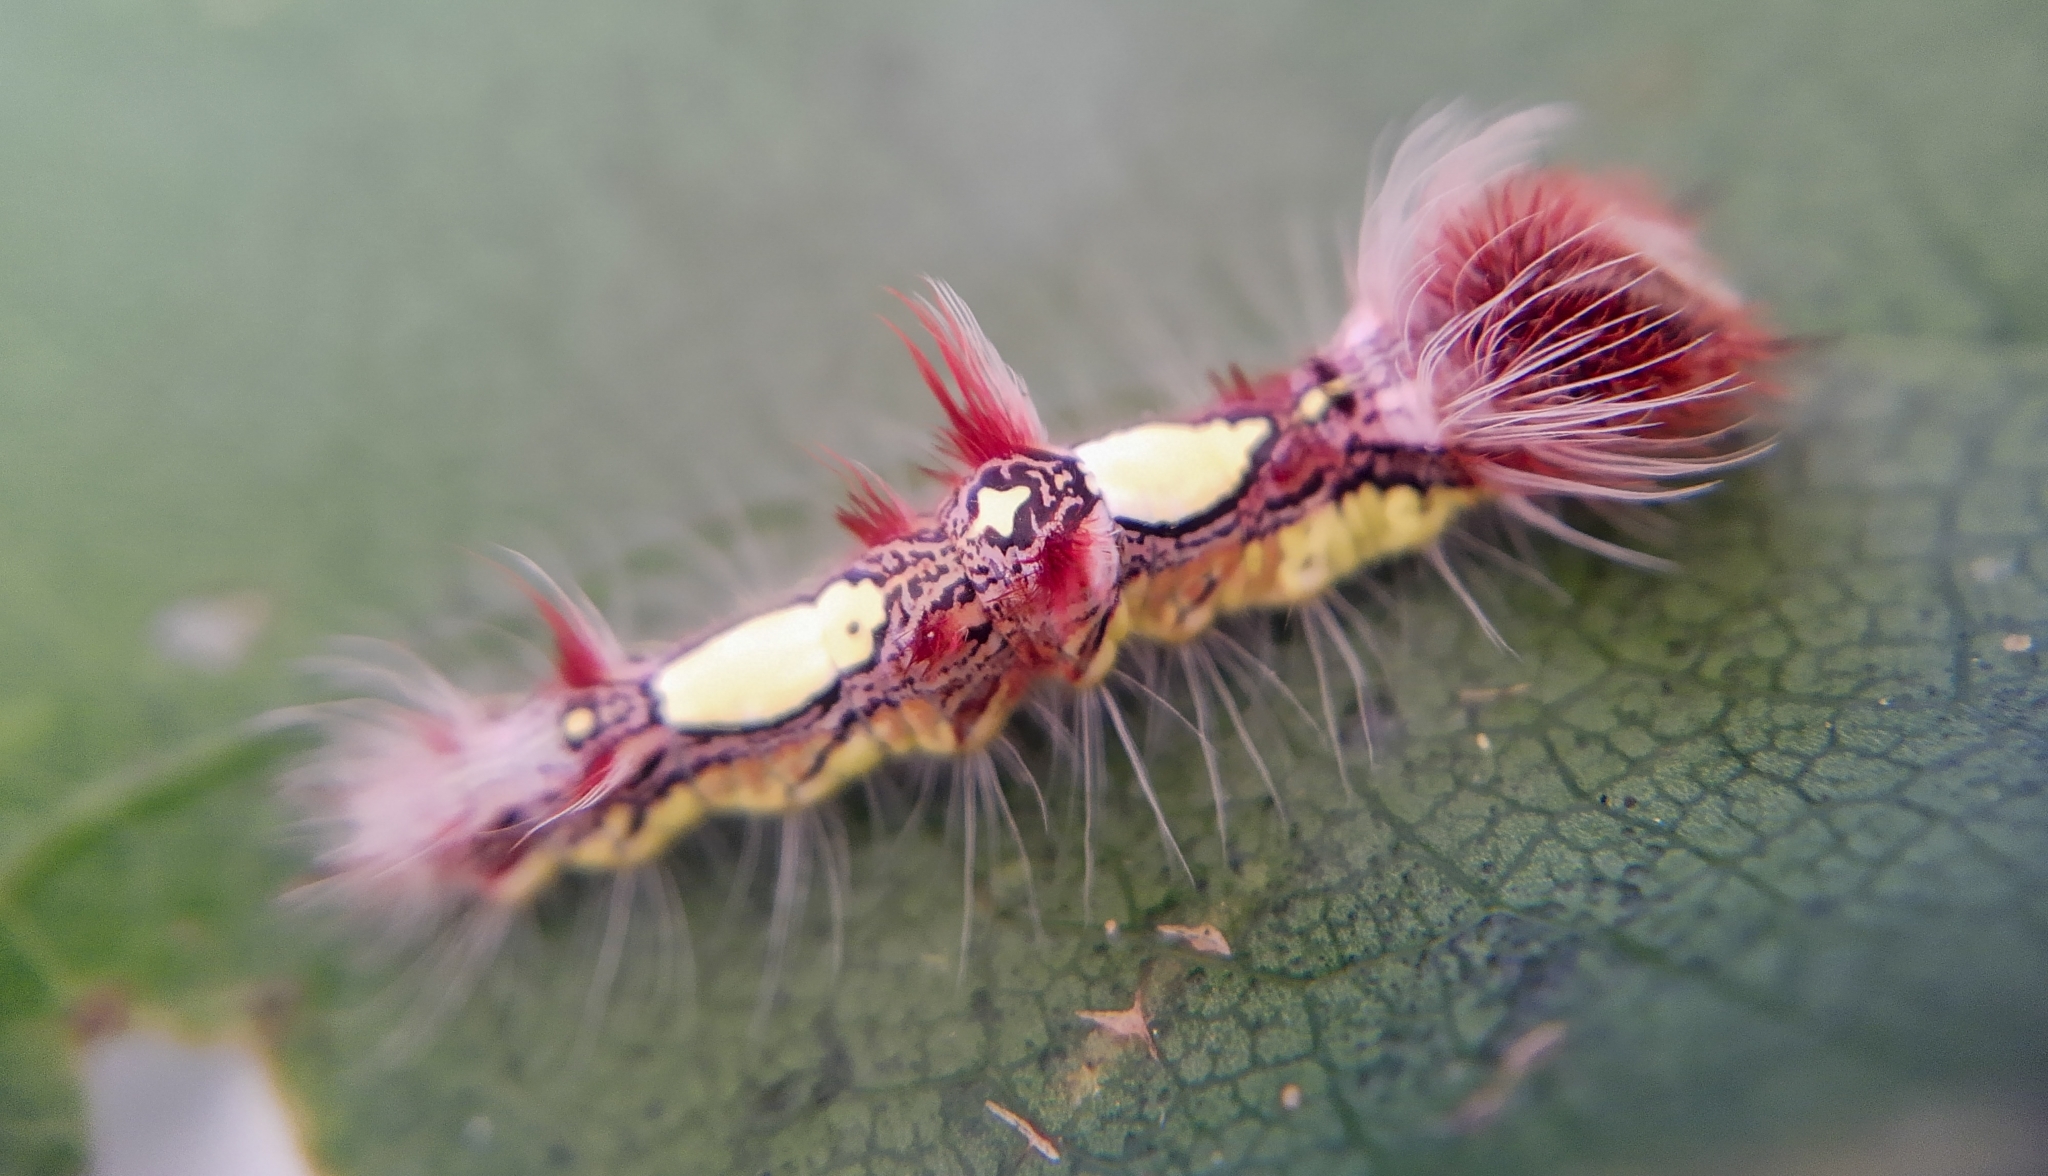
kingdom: Animalia
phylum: Arthropoda
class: Insecta
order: Lepidoptera
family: Nymphalidae
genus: Morpho
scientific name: Morpho helenor
